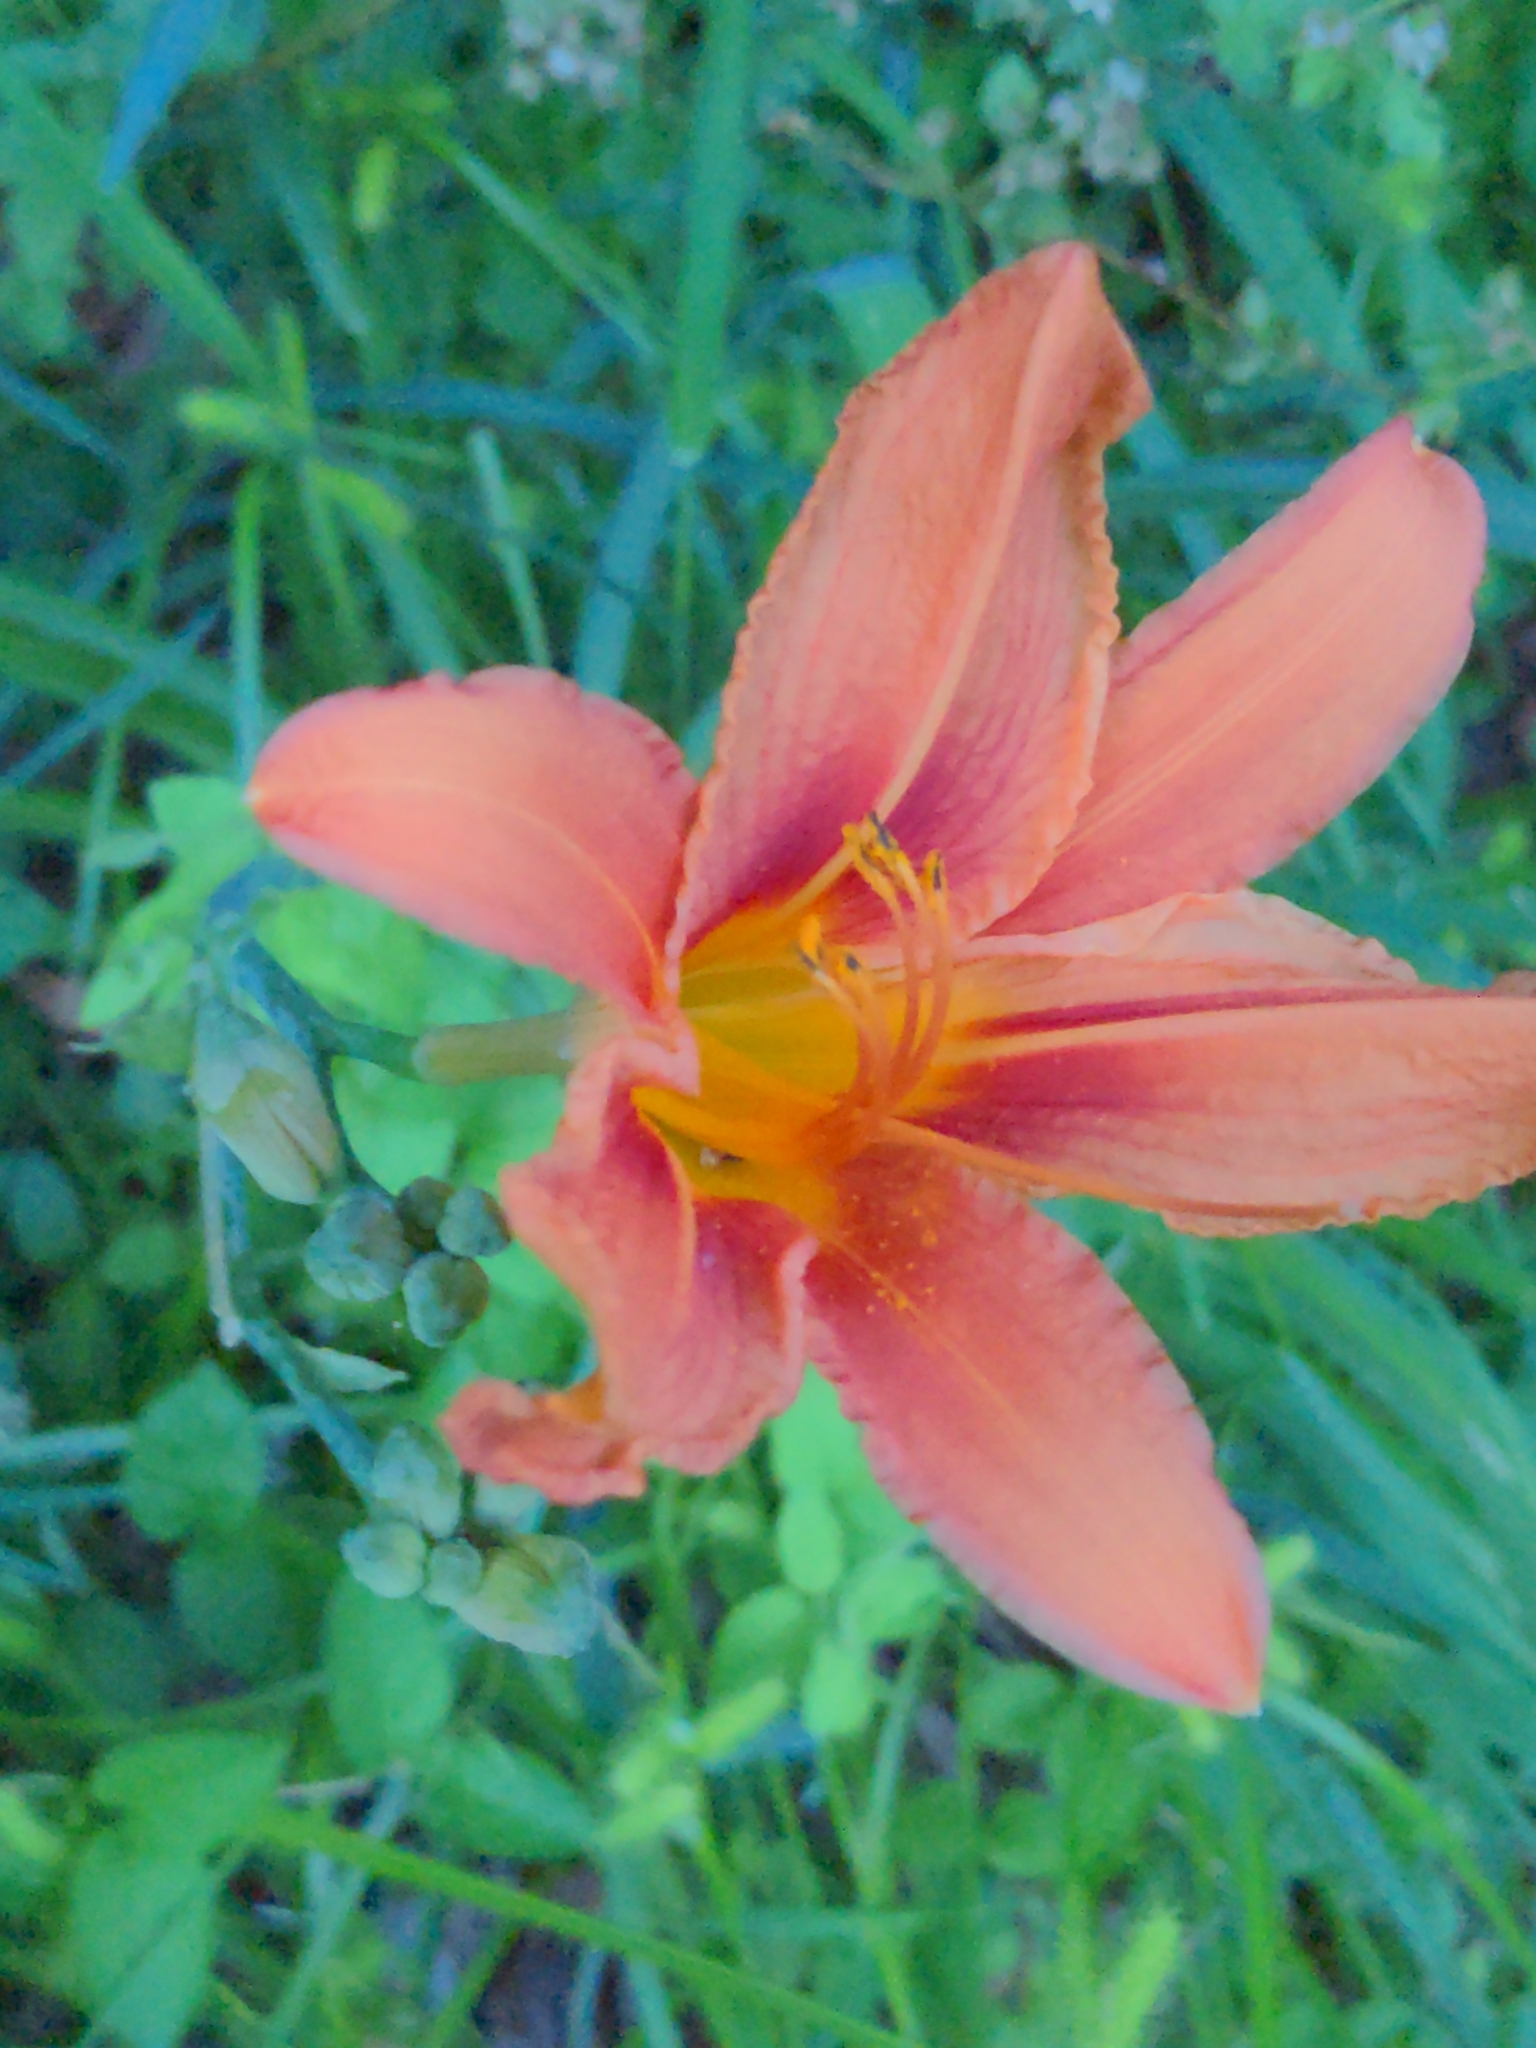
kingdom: Plantae
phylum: Tracheophyta
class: Liliopsida
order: Asparagales
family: Asphodelaceae
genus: Hemerocallis
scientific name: Hemerocallis fulva
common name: Orange day-lily
